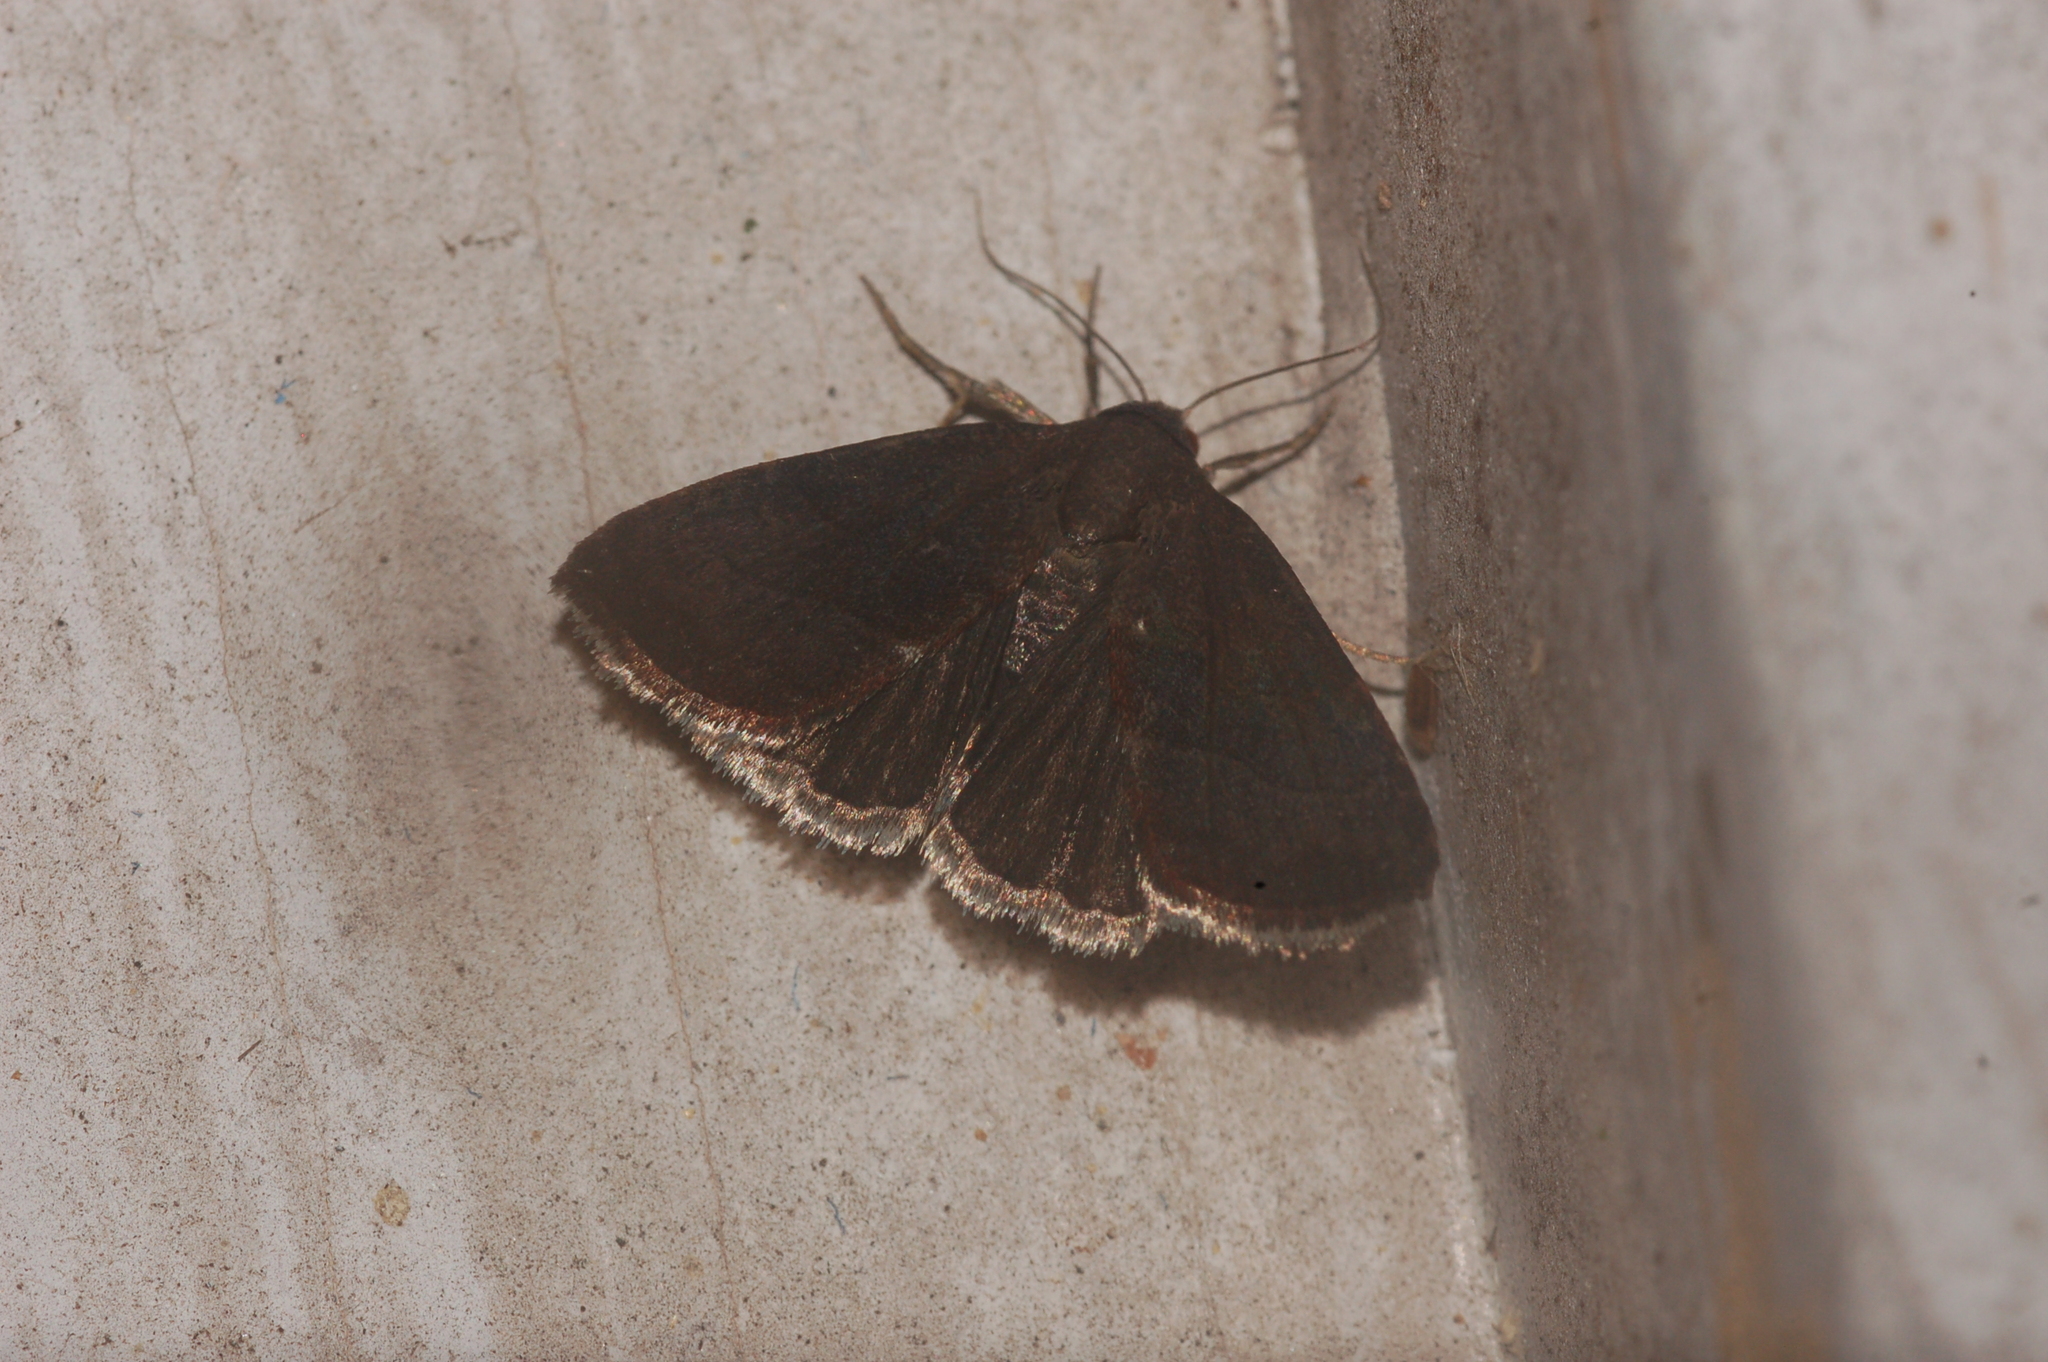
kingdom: Animalia
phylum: Arthropoda
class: Insecta
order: Lepidoptera
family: Noctuidae
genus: Galgula
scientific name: Galgula partita
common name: Wedgeling
